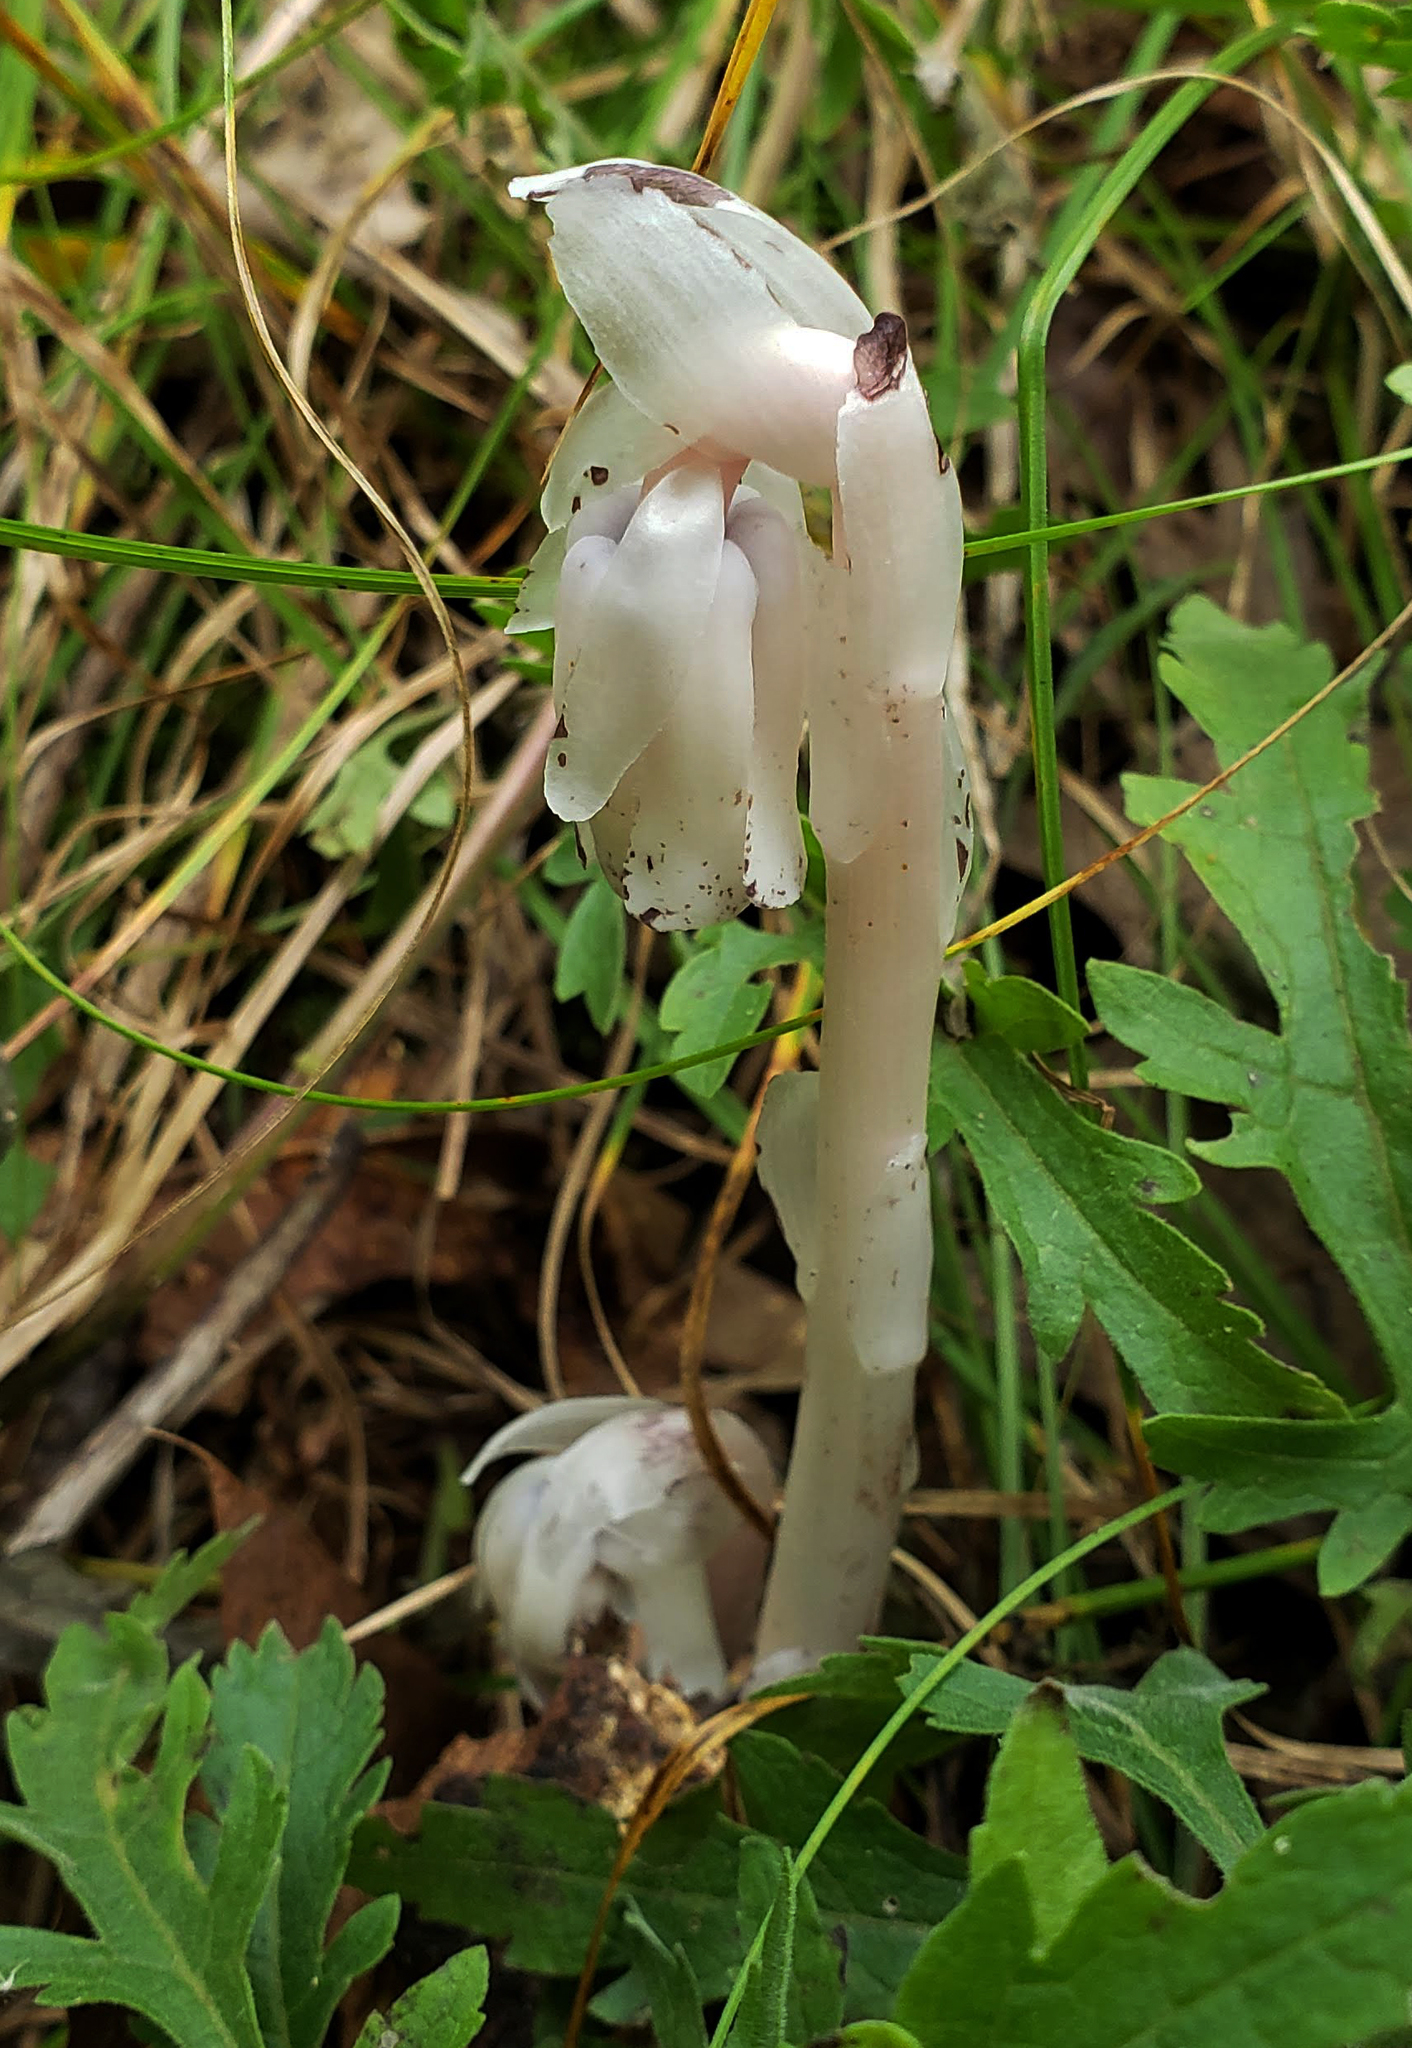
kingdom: Plantae
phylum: Tracheophyta
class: Magnoliopsida
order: Ericales
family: Ericaceae
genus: Monotropa
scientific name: Monotropa uniflora
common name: Convulsion root
